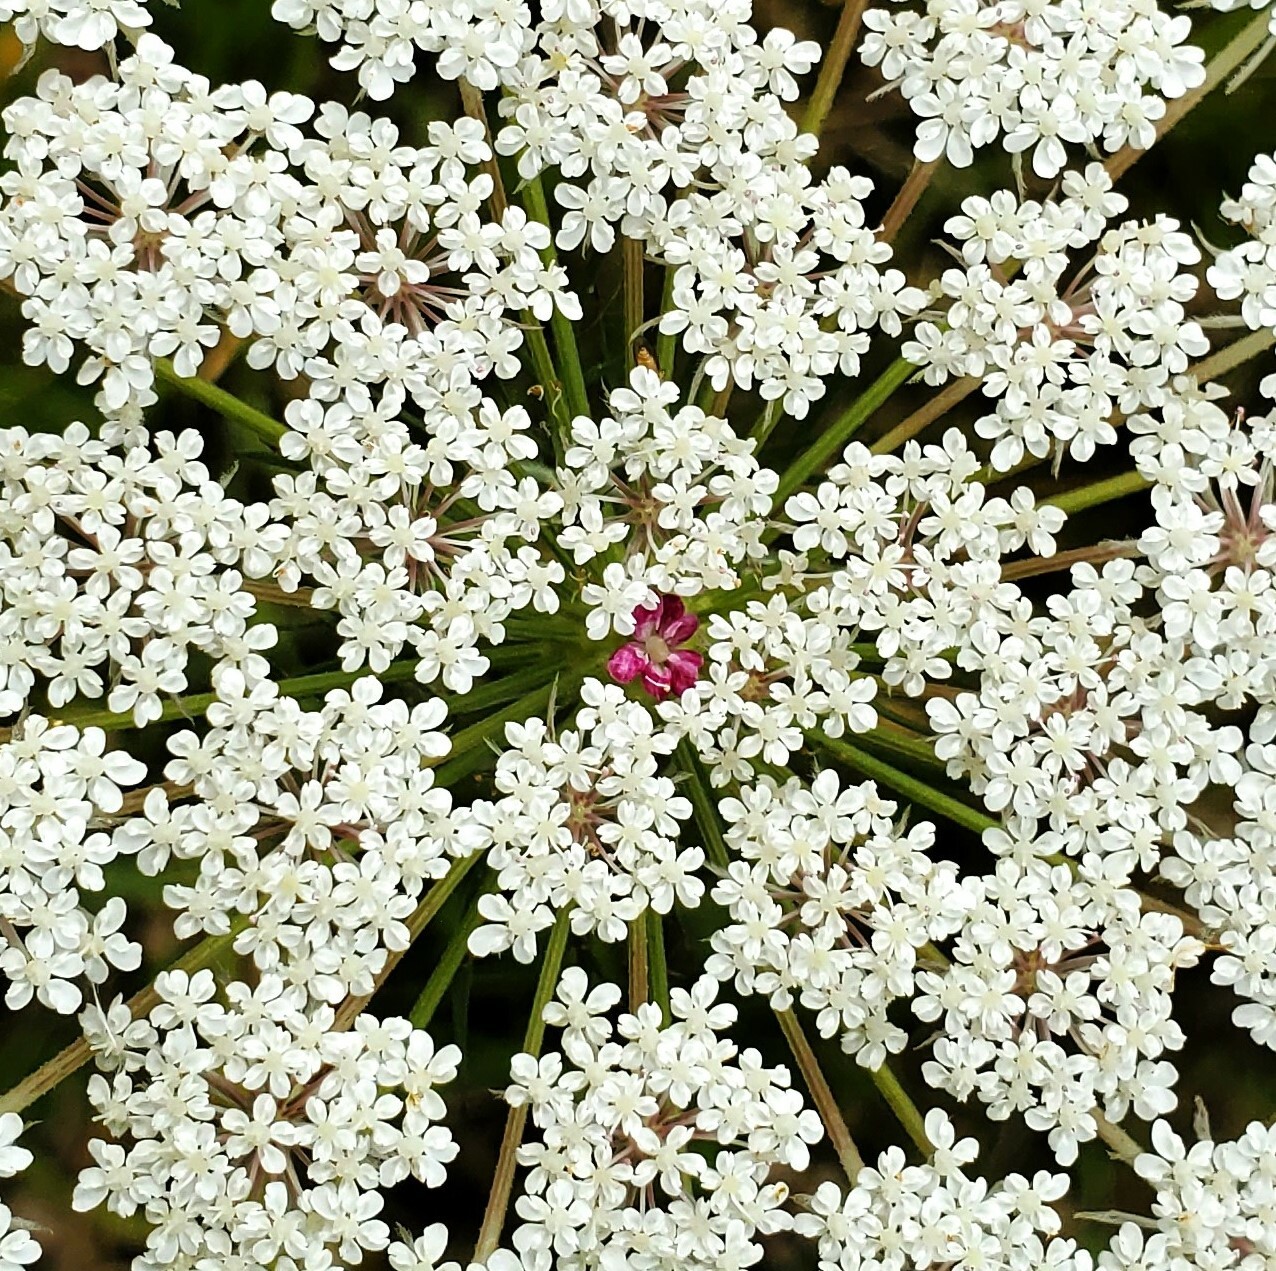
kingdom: Plantae
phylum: Tracheophyta
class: Magnoliopsida
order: Apiales
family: Apiaceae
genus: Daucus
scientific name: Daucus carota
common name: Wild carrot
